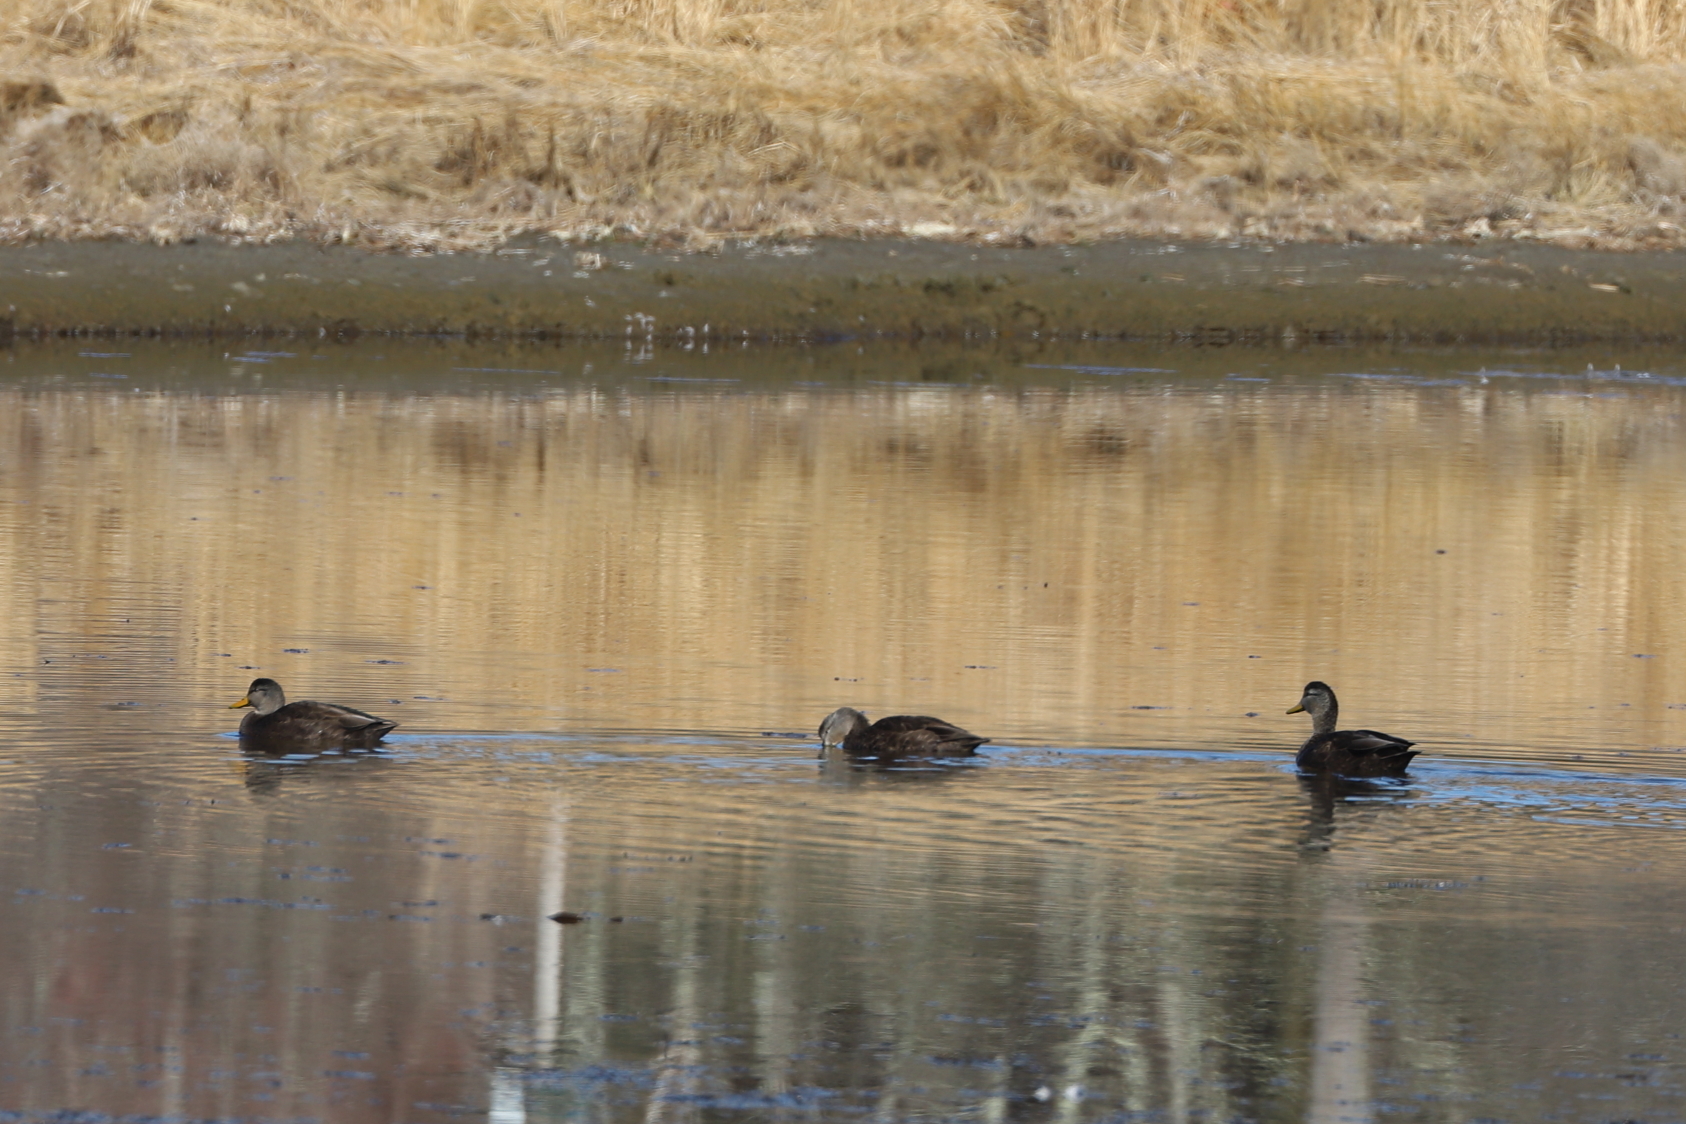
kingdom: Animalia
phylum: Chordata
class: Aves
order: Anseriformes
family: Anatidae
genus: Anas
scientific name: Anas rubripes
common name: American black duck
